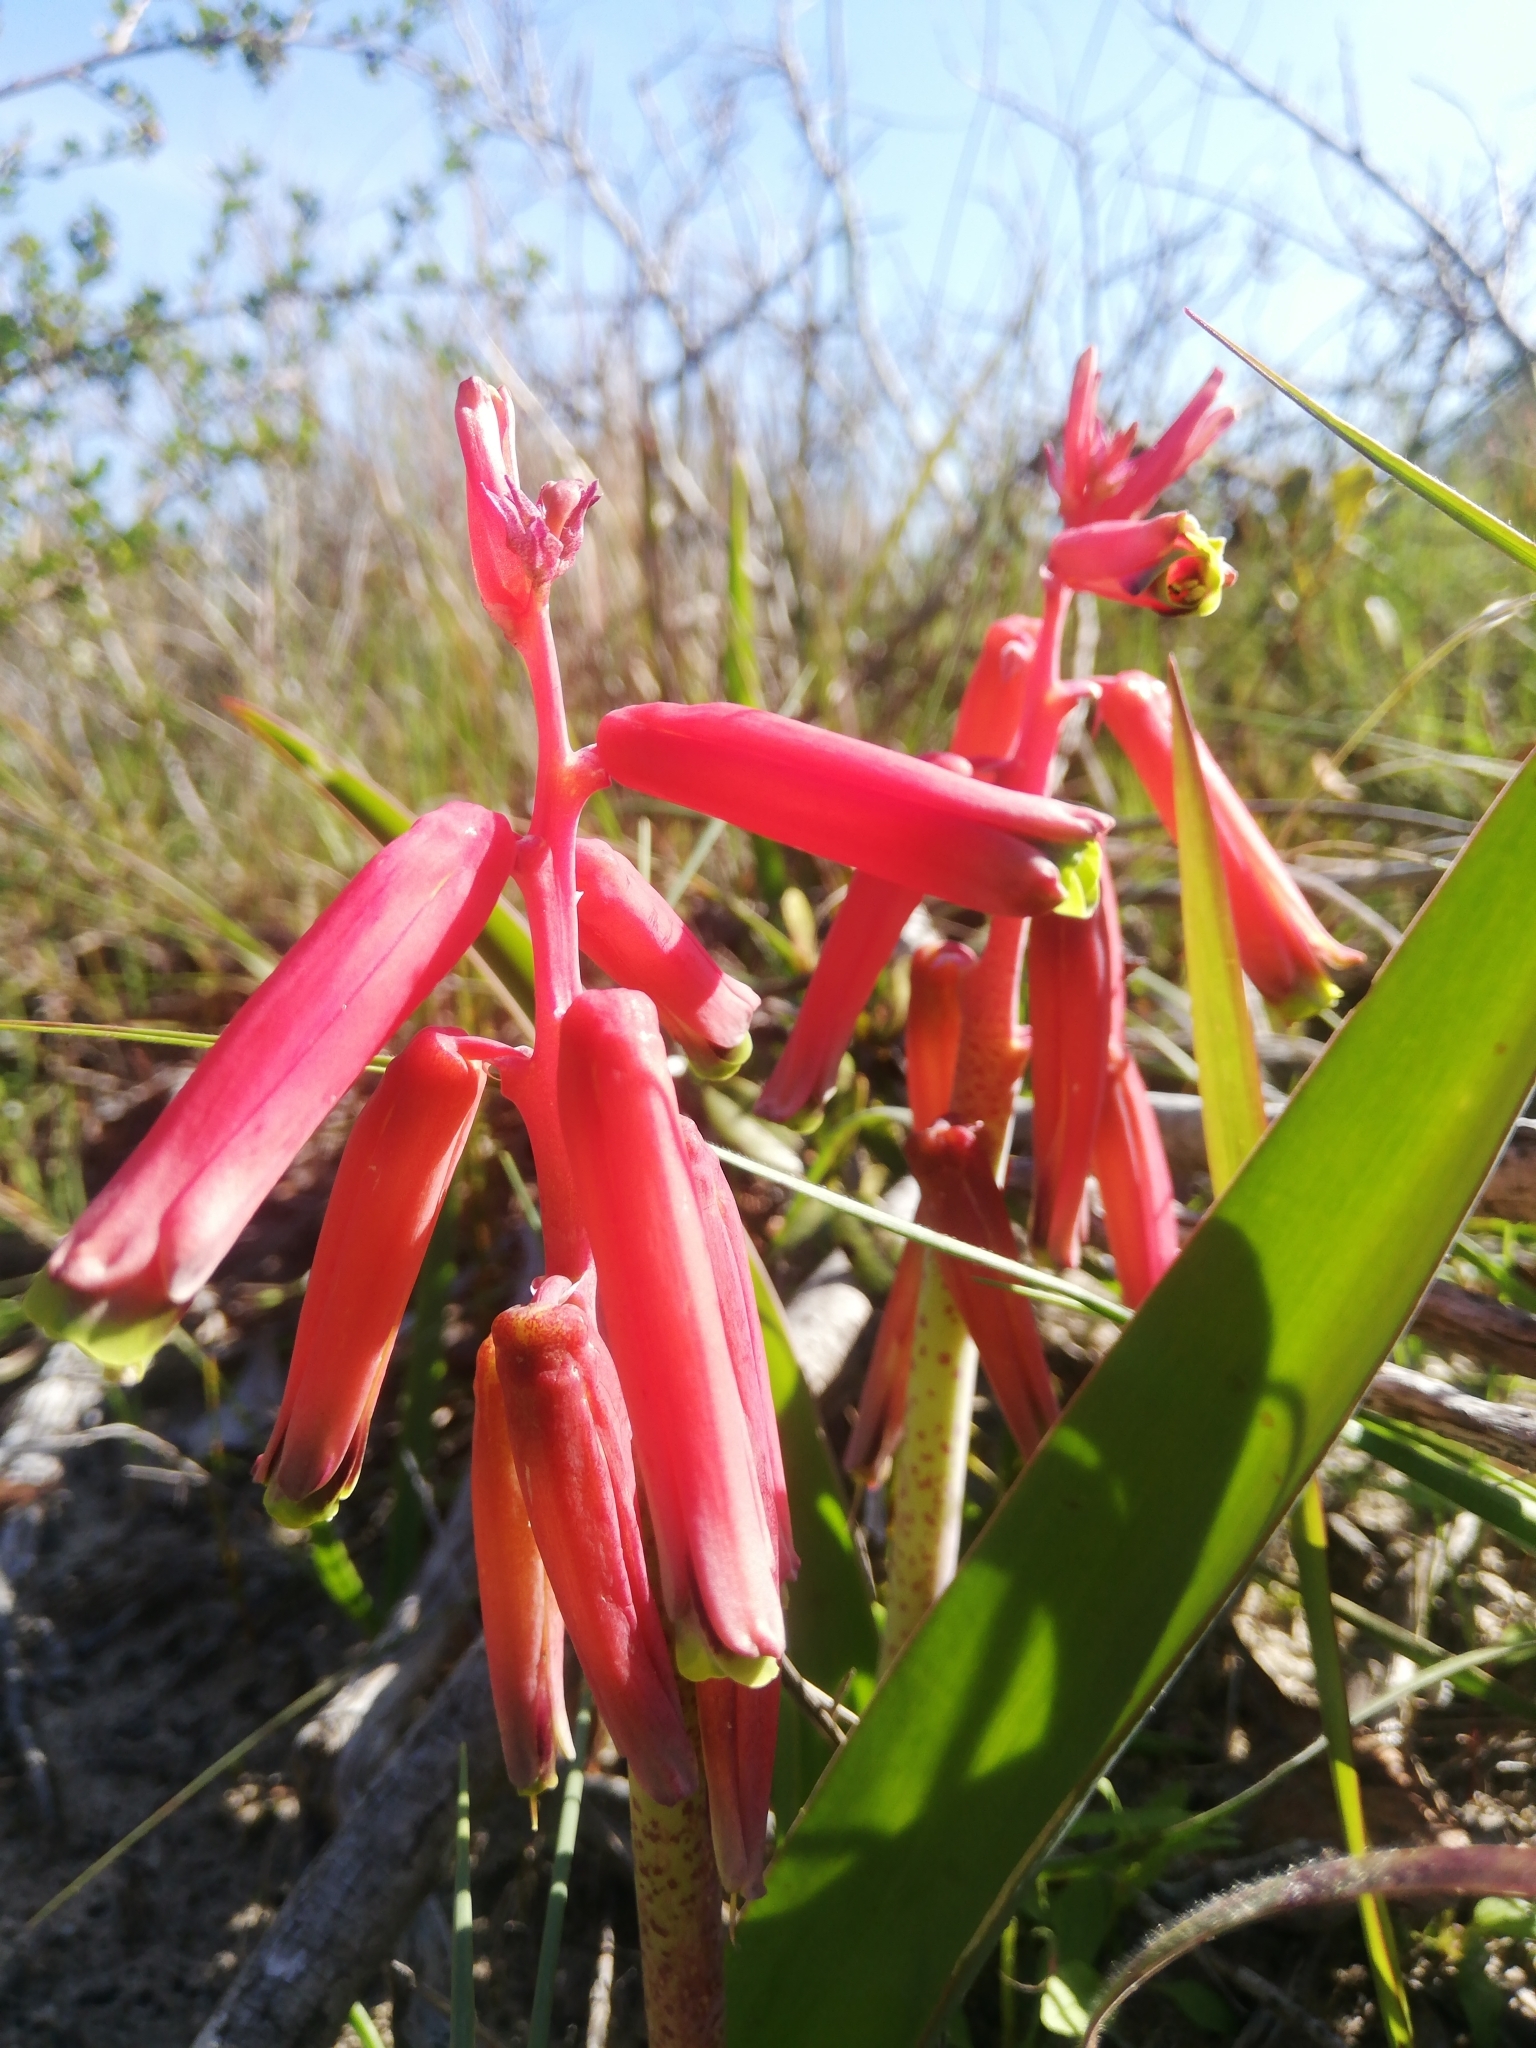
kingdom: Plantae
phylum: Tracheophyta
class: Liliopsida
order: Asparagales
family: Asparagaceae
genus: Lachenalia
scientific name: Lachenalia bulbifera
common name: Red lachenalia
